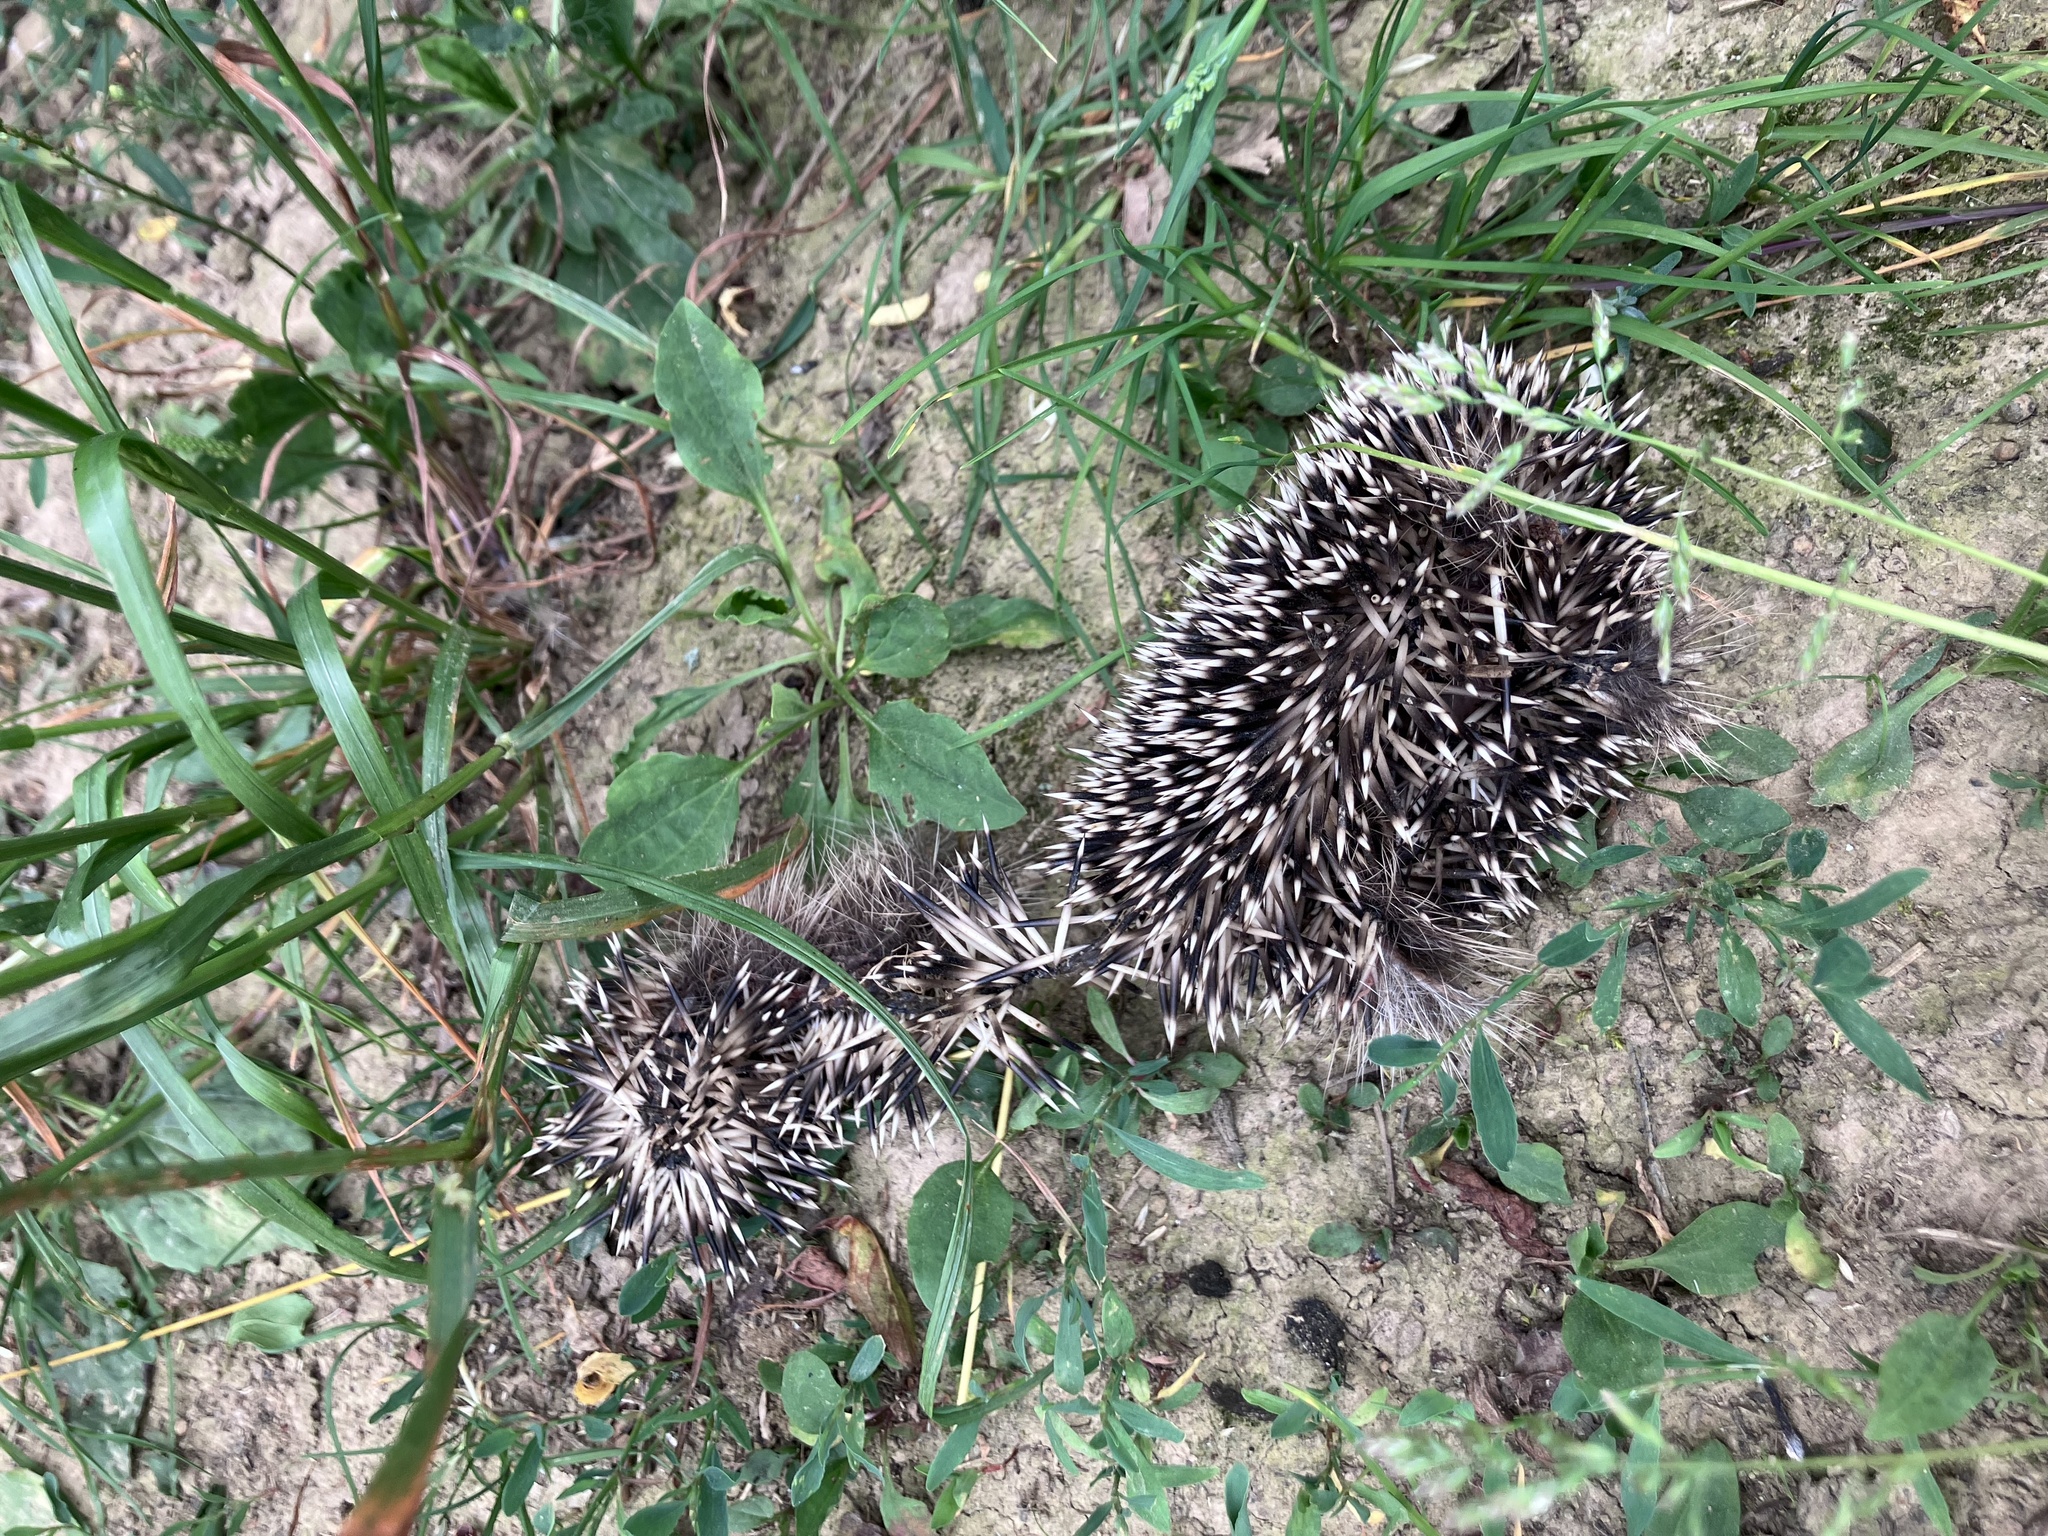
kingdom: Animalia
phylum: Chordata
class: Mammalia
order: Erinaceomorpha
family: Erinaceidae
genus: Erinaceus
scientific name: Erinaceus europaeus
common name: West european hedgehog
